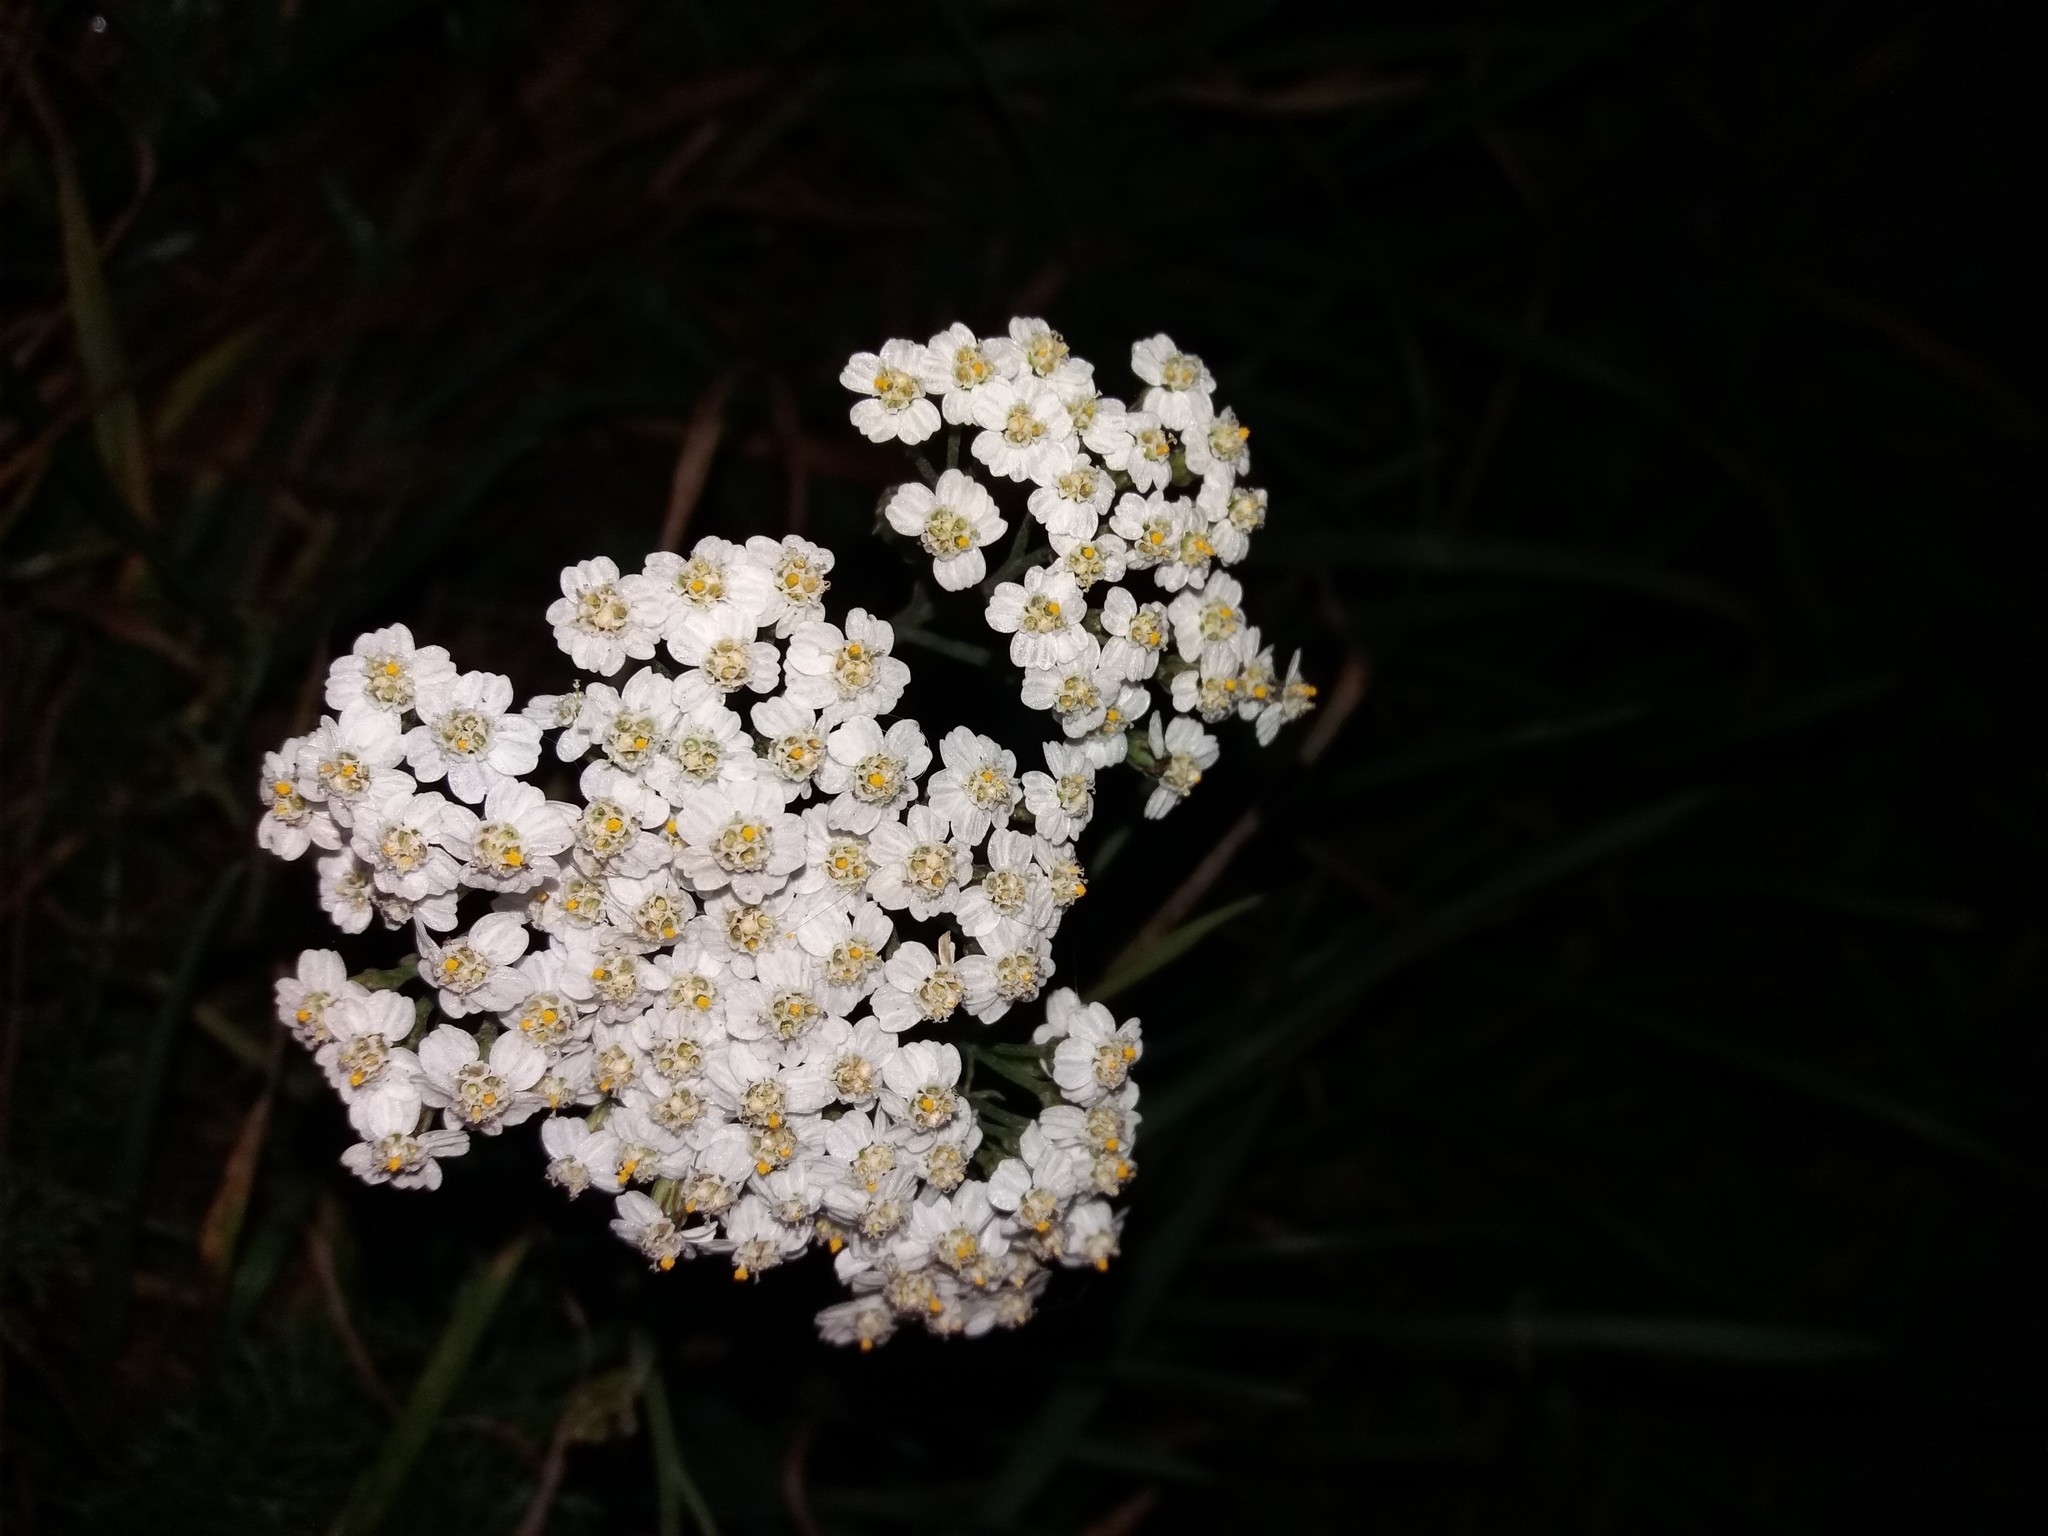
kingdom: Plantae
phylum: Tracheophyta
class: Magnoliopsida
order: Asterales
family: Asteraceae
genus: Achillea
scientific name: Achillea millefolium
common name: Yarrow
